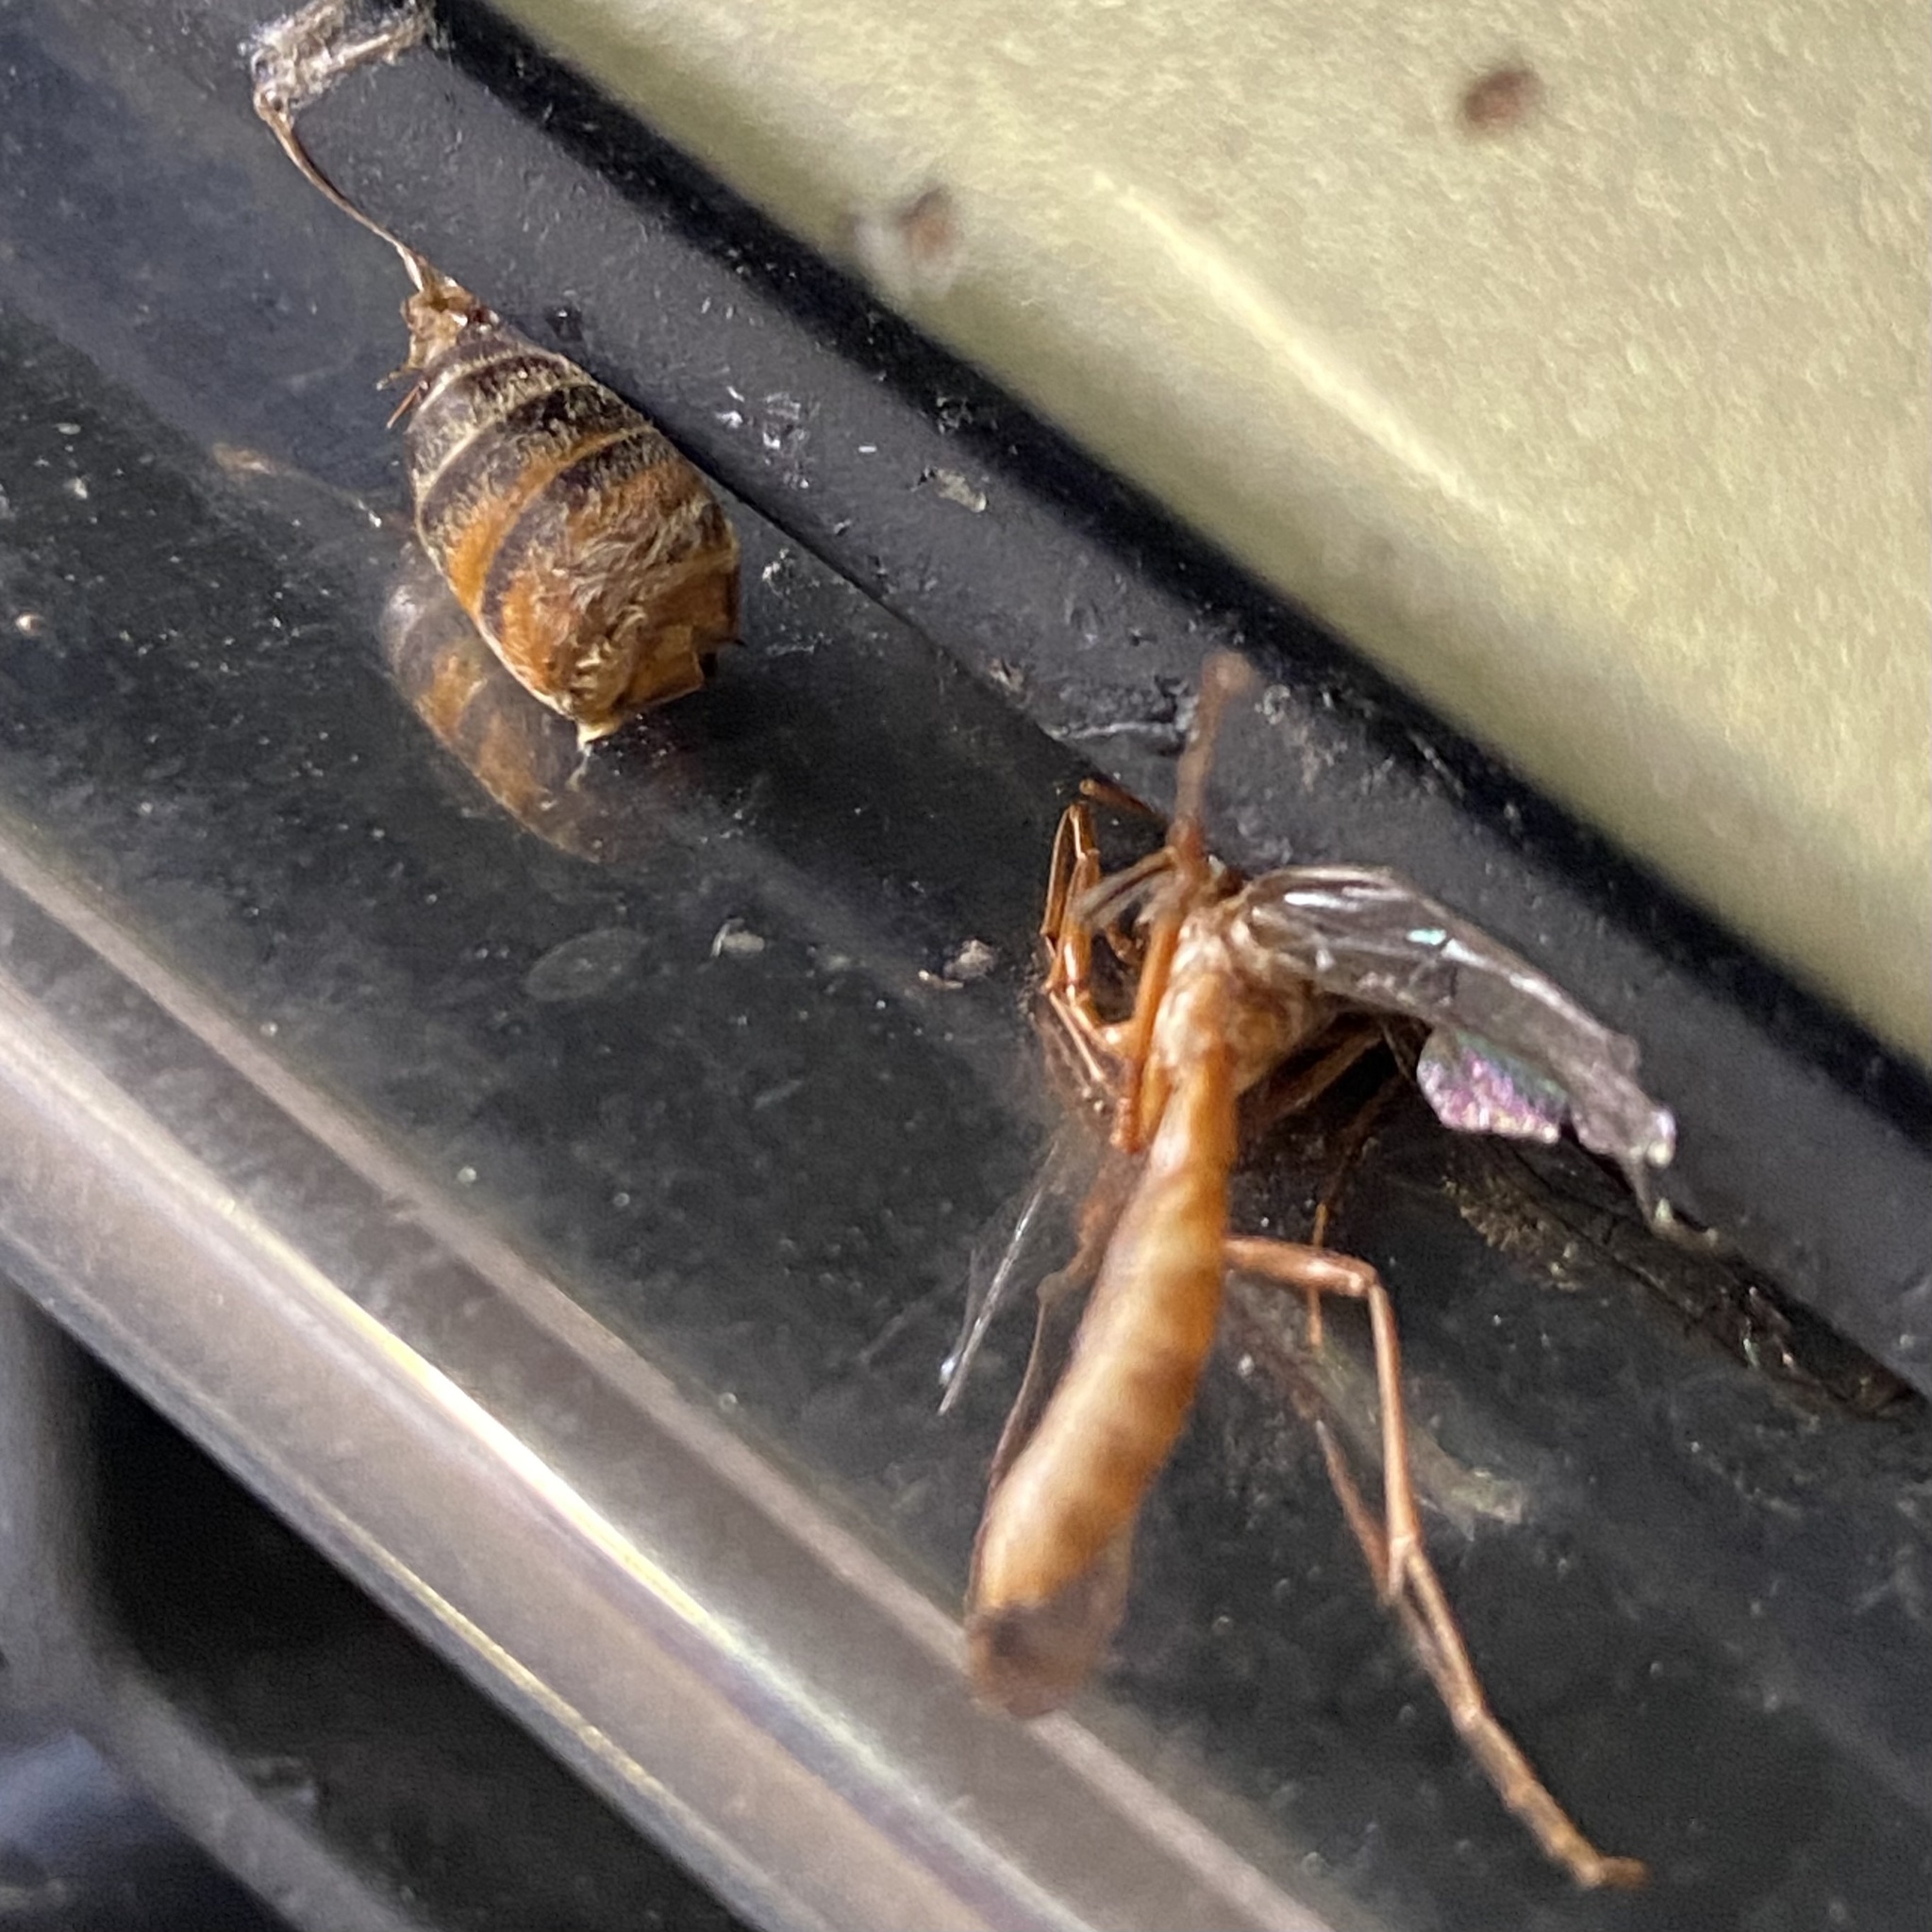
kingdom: Animalia
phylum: Arthropoda
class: Insecta
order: Hymenoptera
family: Apidae
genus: Apis
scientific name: Apis mellifera
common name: Honey bee
